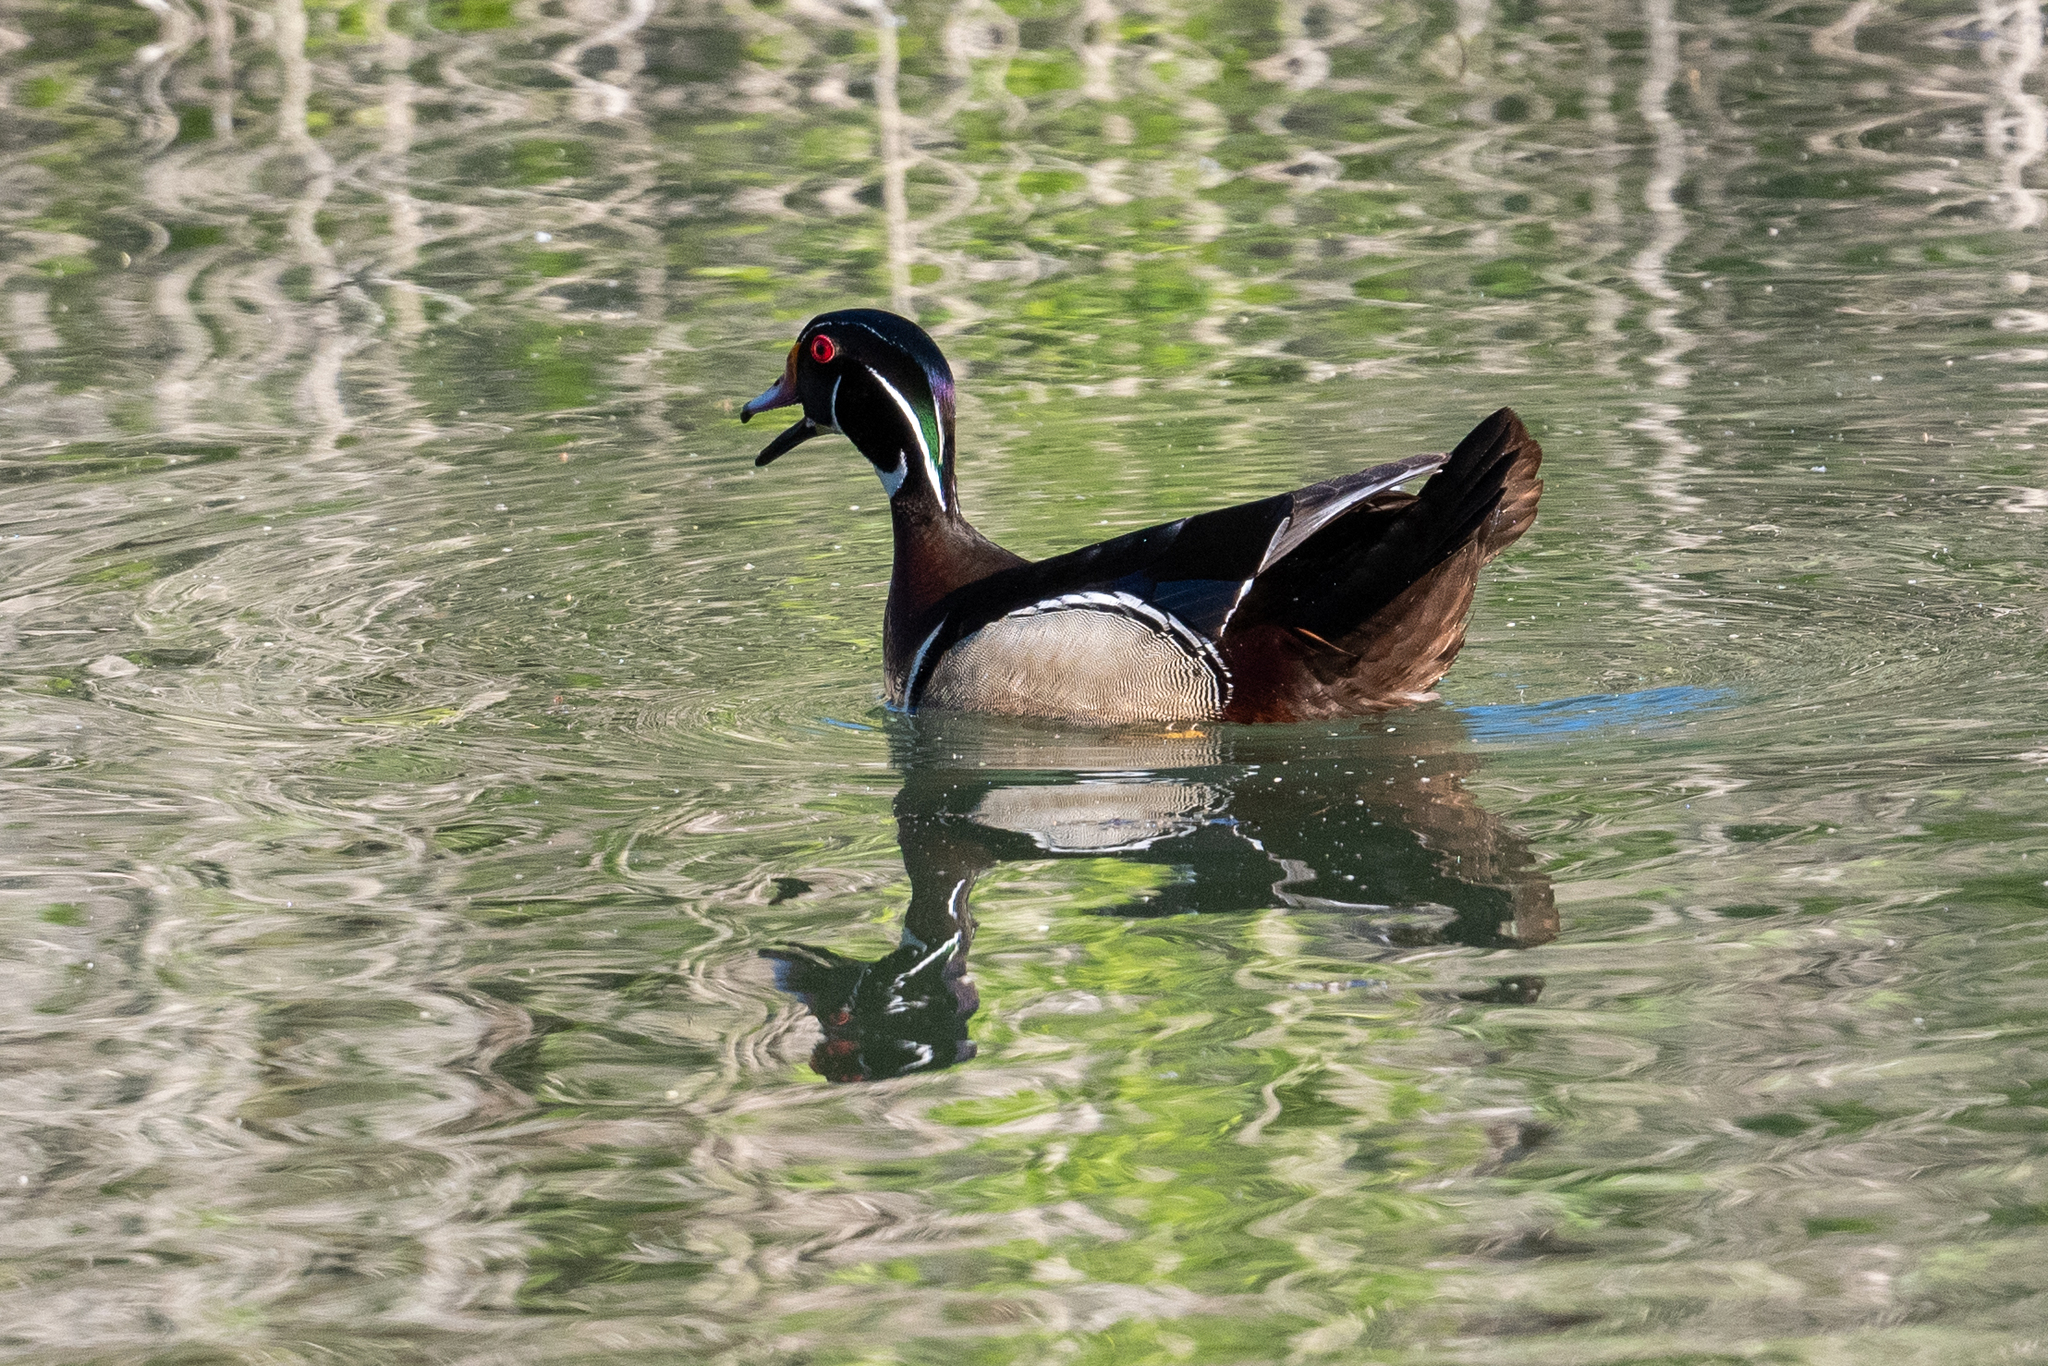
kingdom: Animalia
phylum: Chordata
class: Aves
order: Anseriformes
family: Anatidae
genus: Aix
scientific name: Aix sponsa
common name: Wood duck
